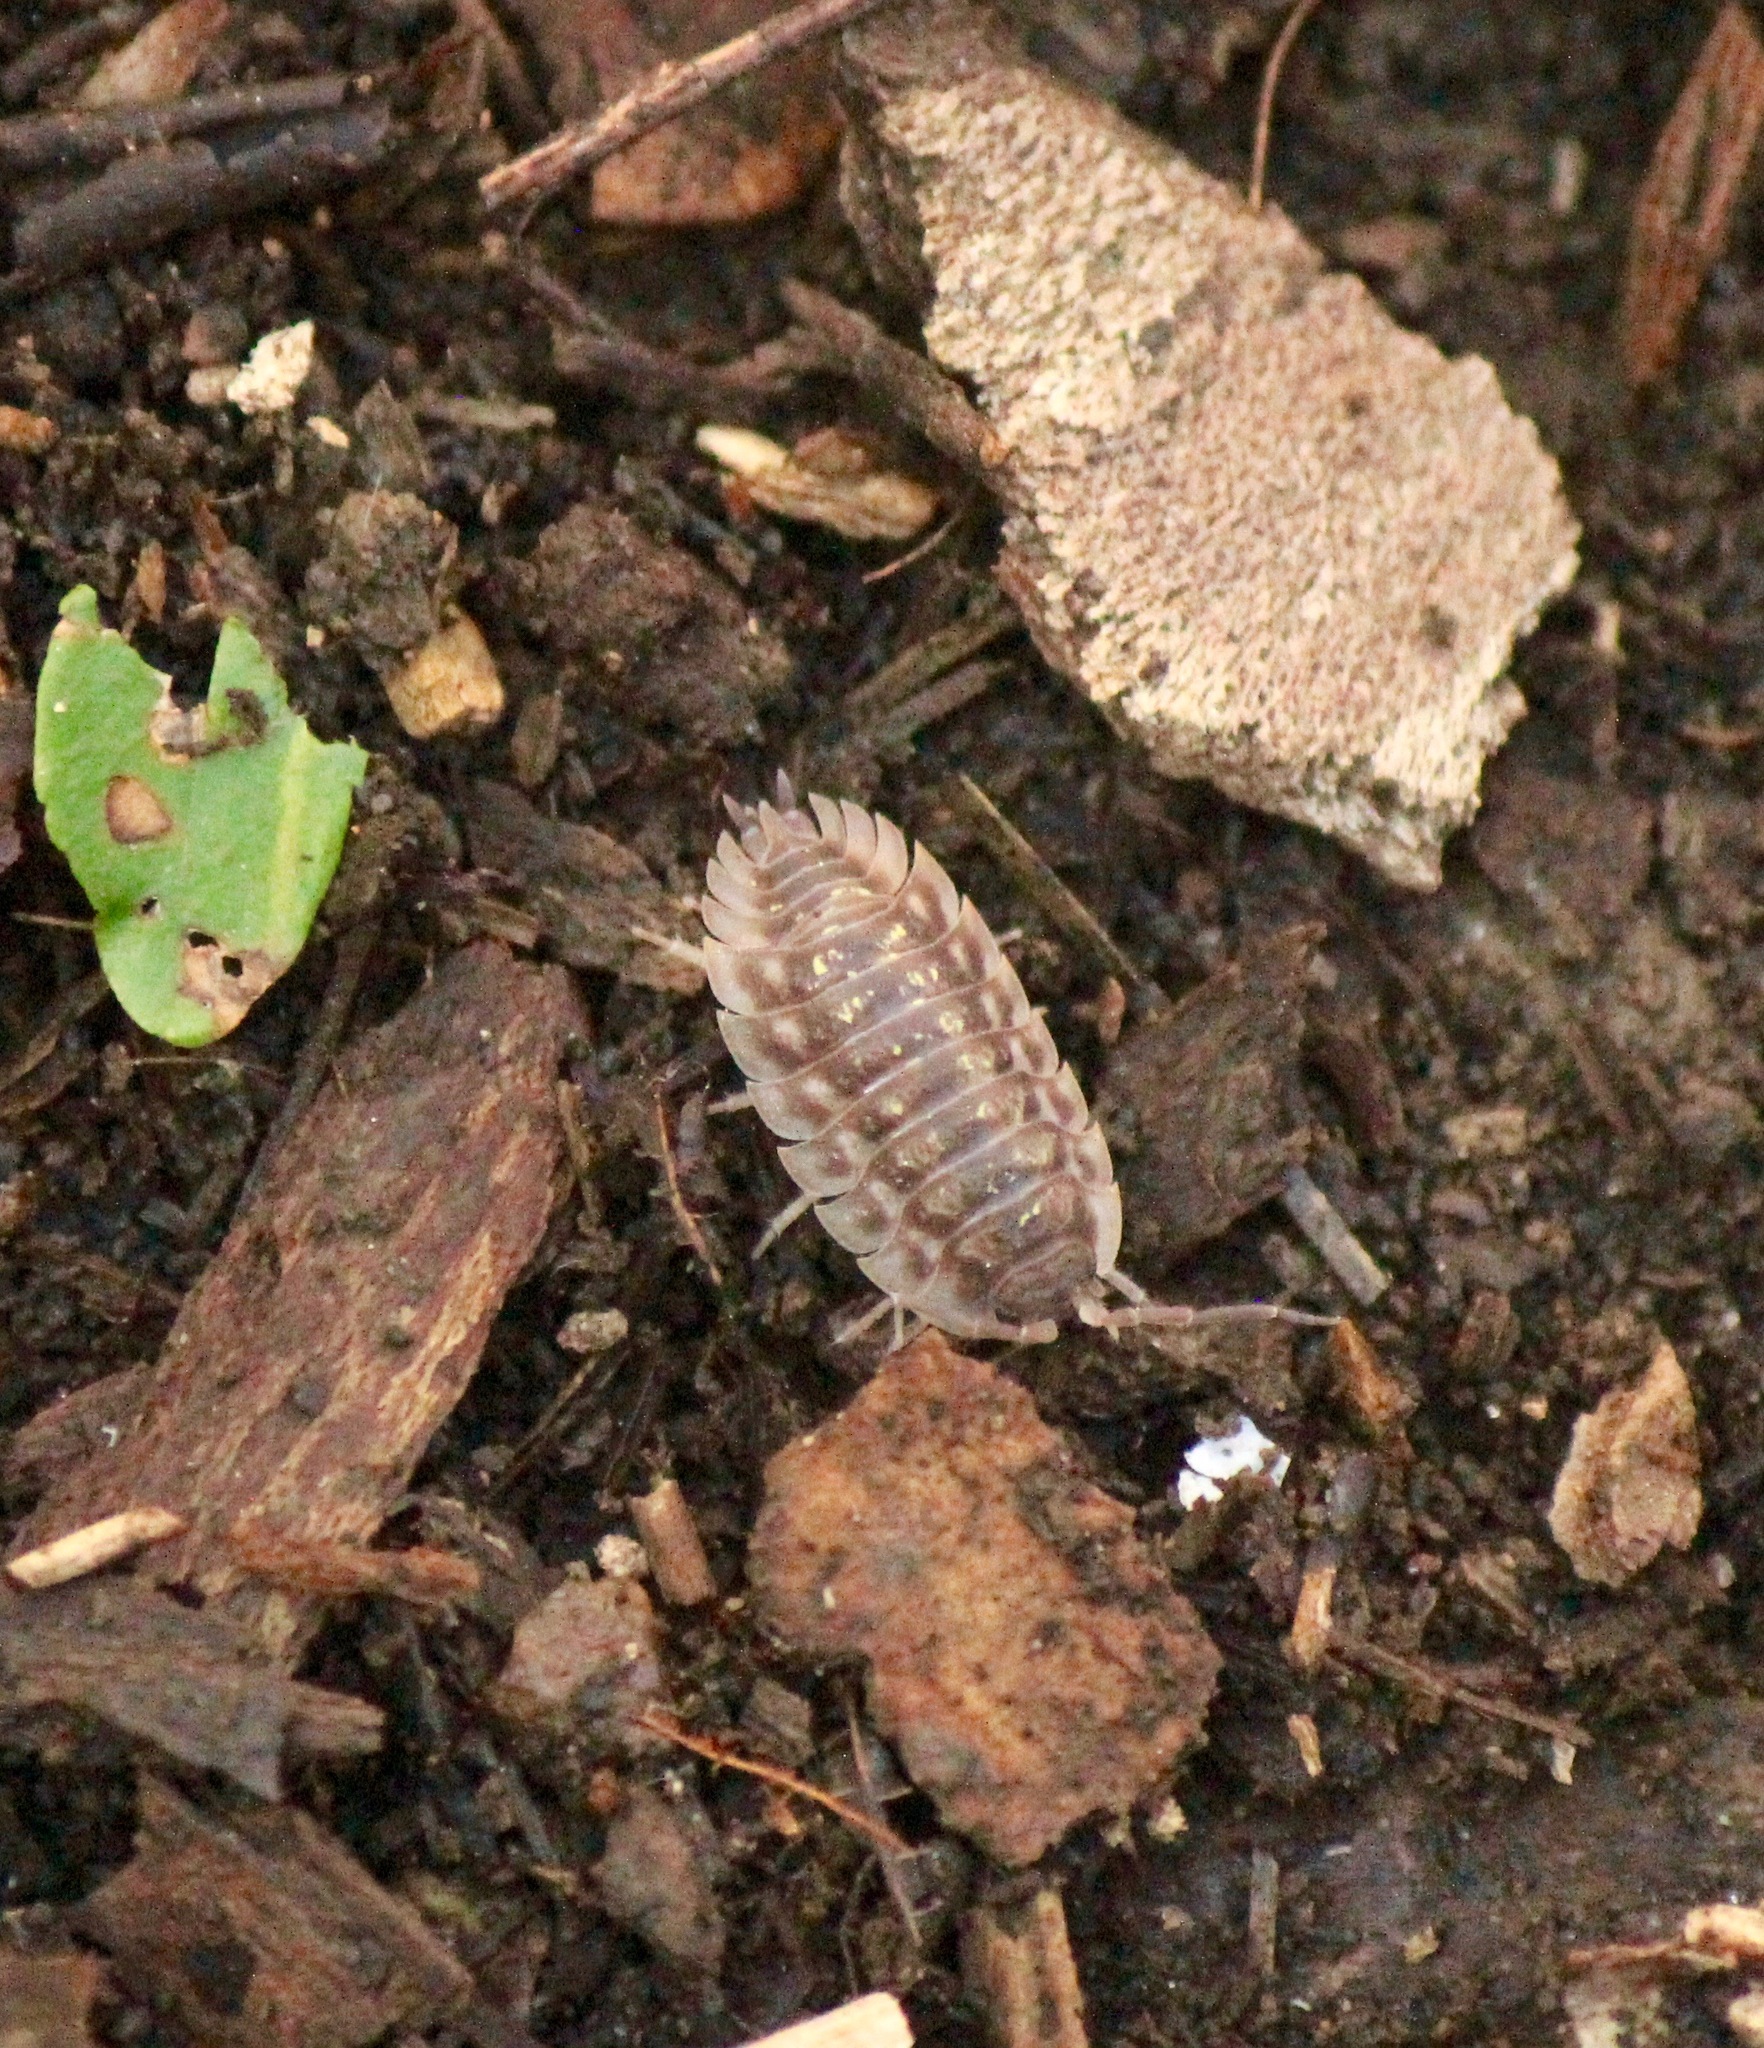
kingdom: Animalia
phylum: Arthropoda
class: Malacostraca
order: Isopoda
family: Oniscidae
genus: Oniscus
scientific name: Oniscus asellus
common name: Common shiny woodlouse
